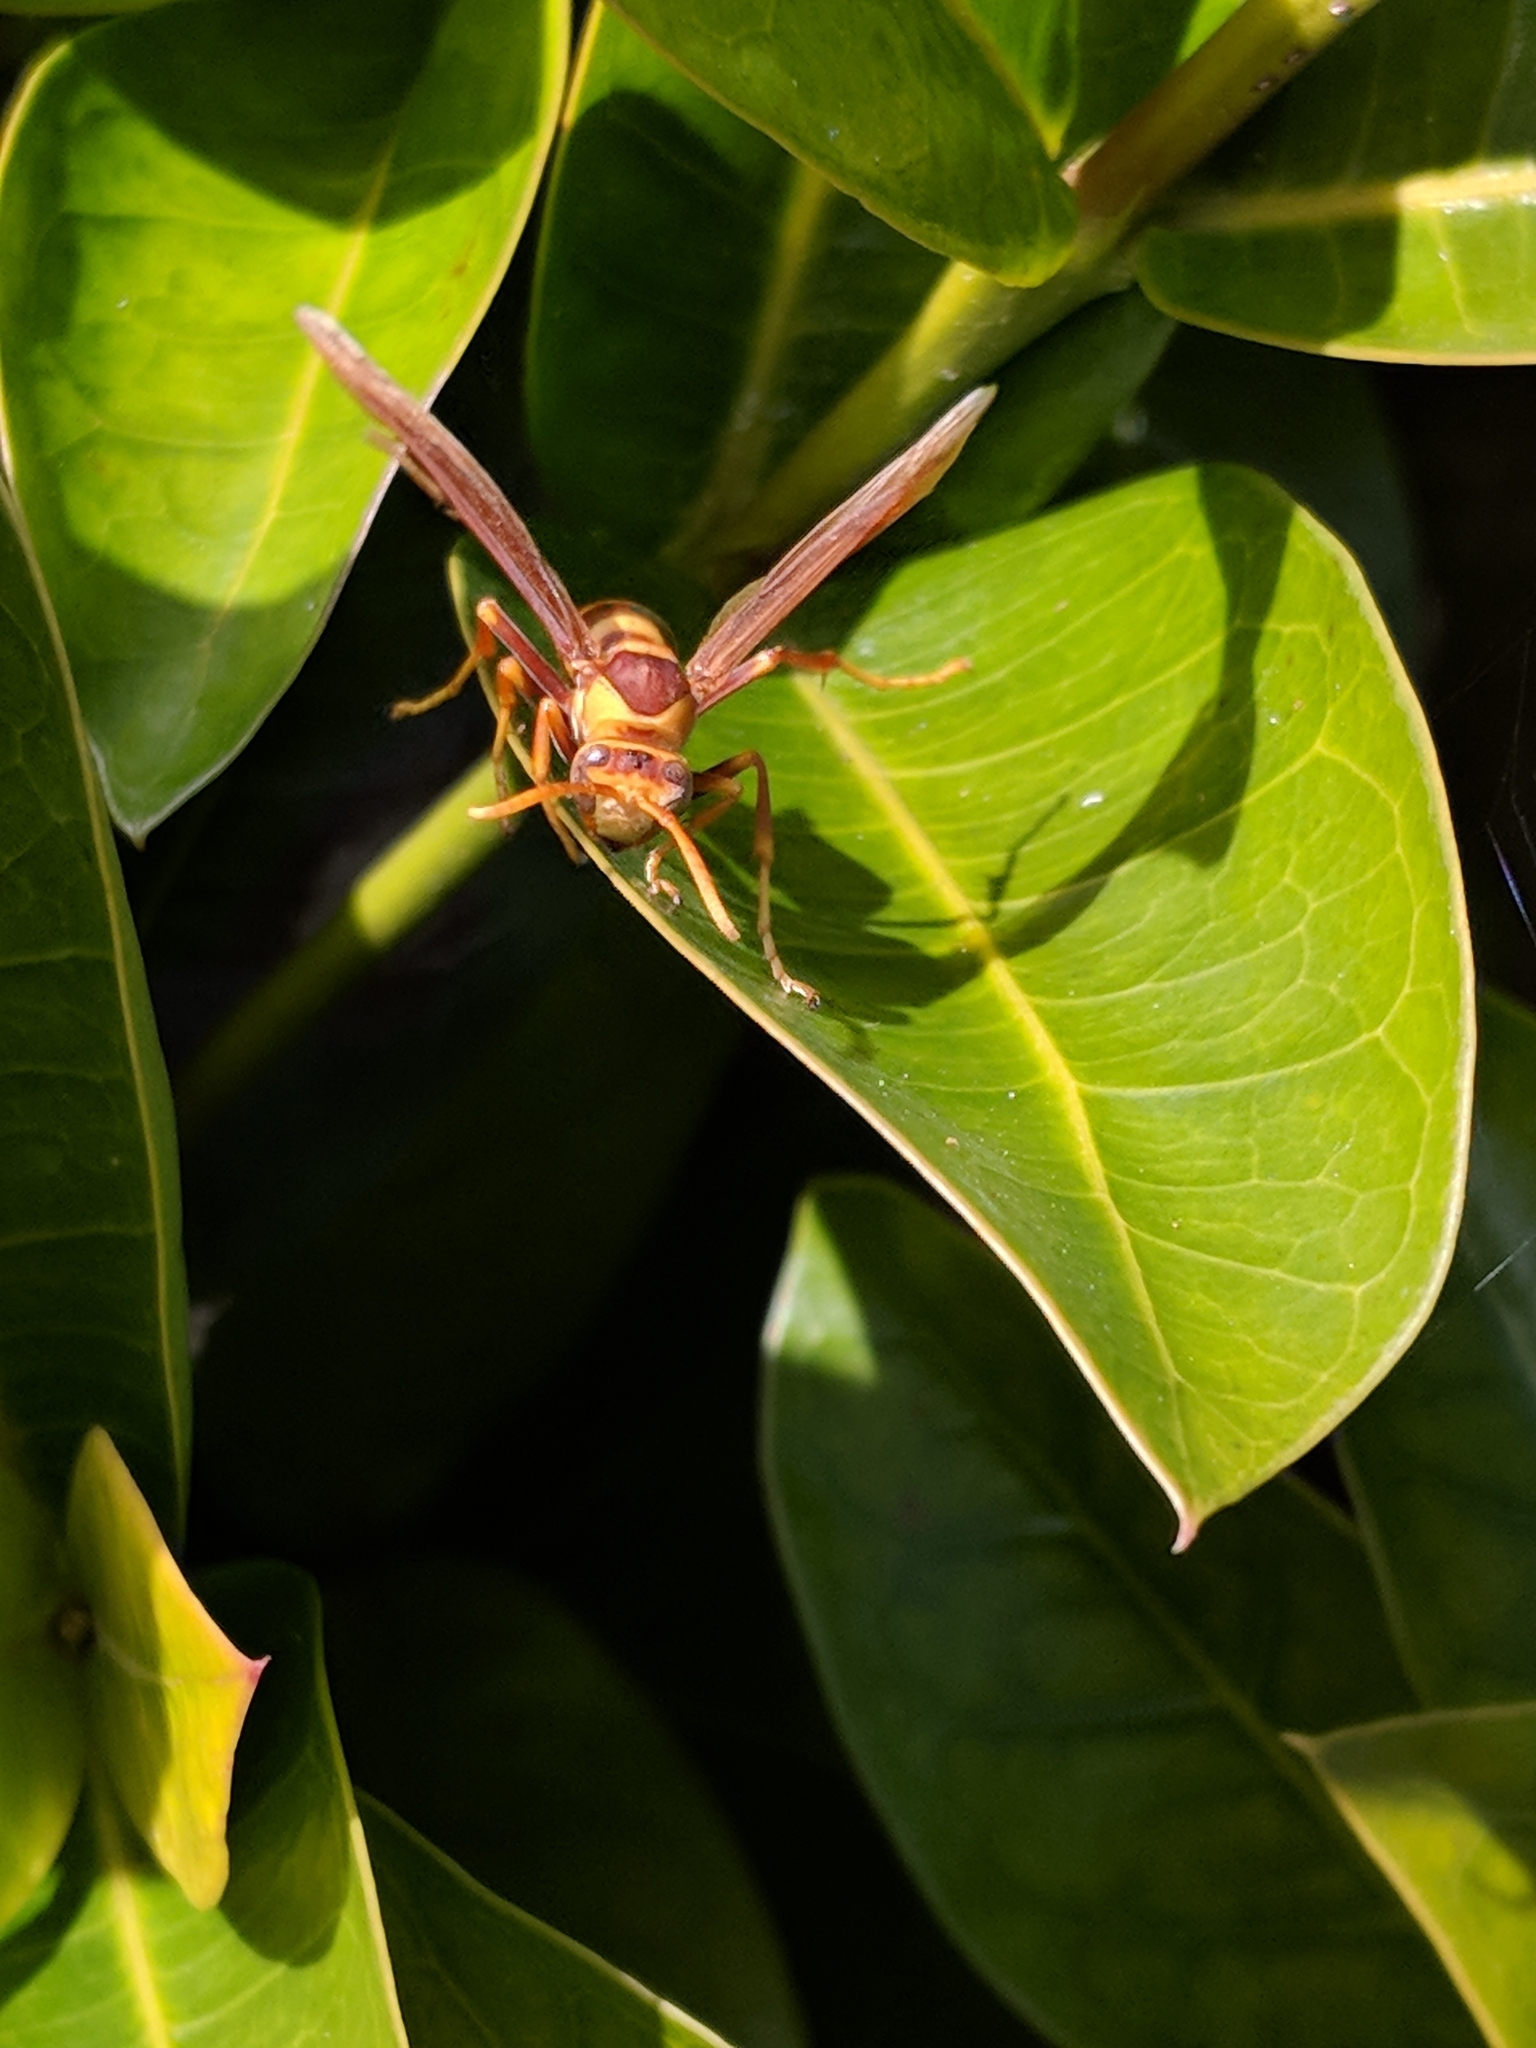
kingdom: Animalia
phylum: Arthropoda
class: Insecta
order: Hymenoptera
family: Eumenidae
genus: Polistes
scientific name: Polistes major
